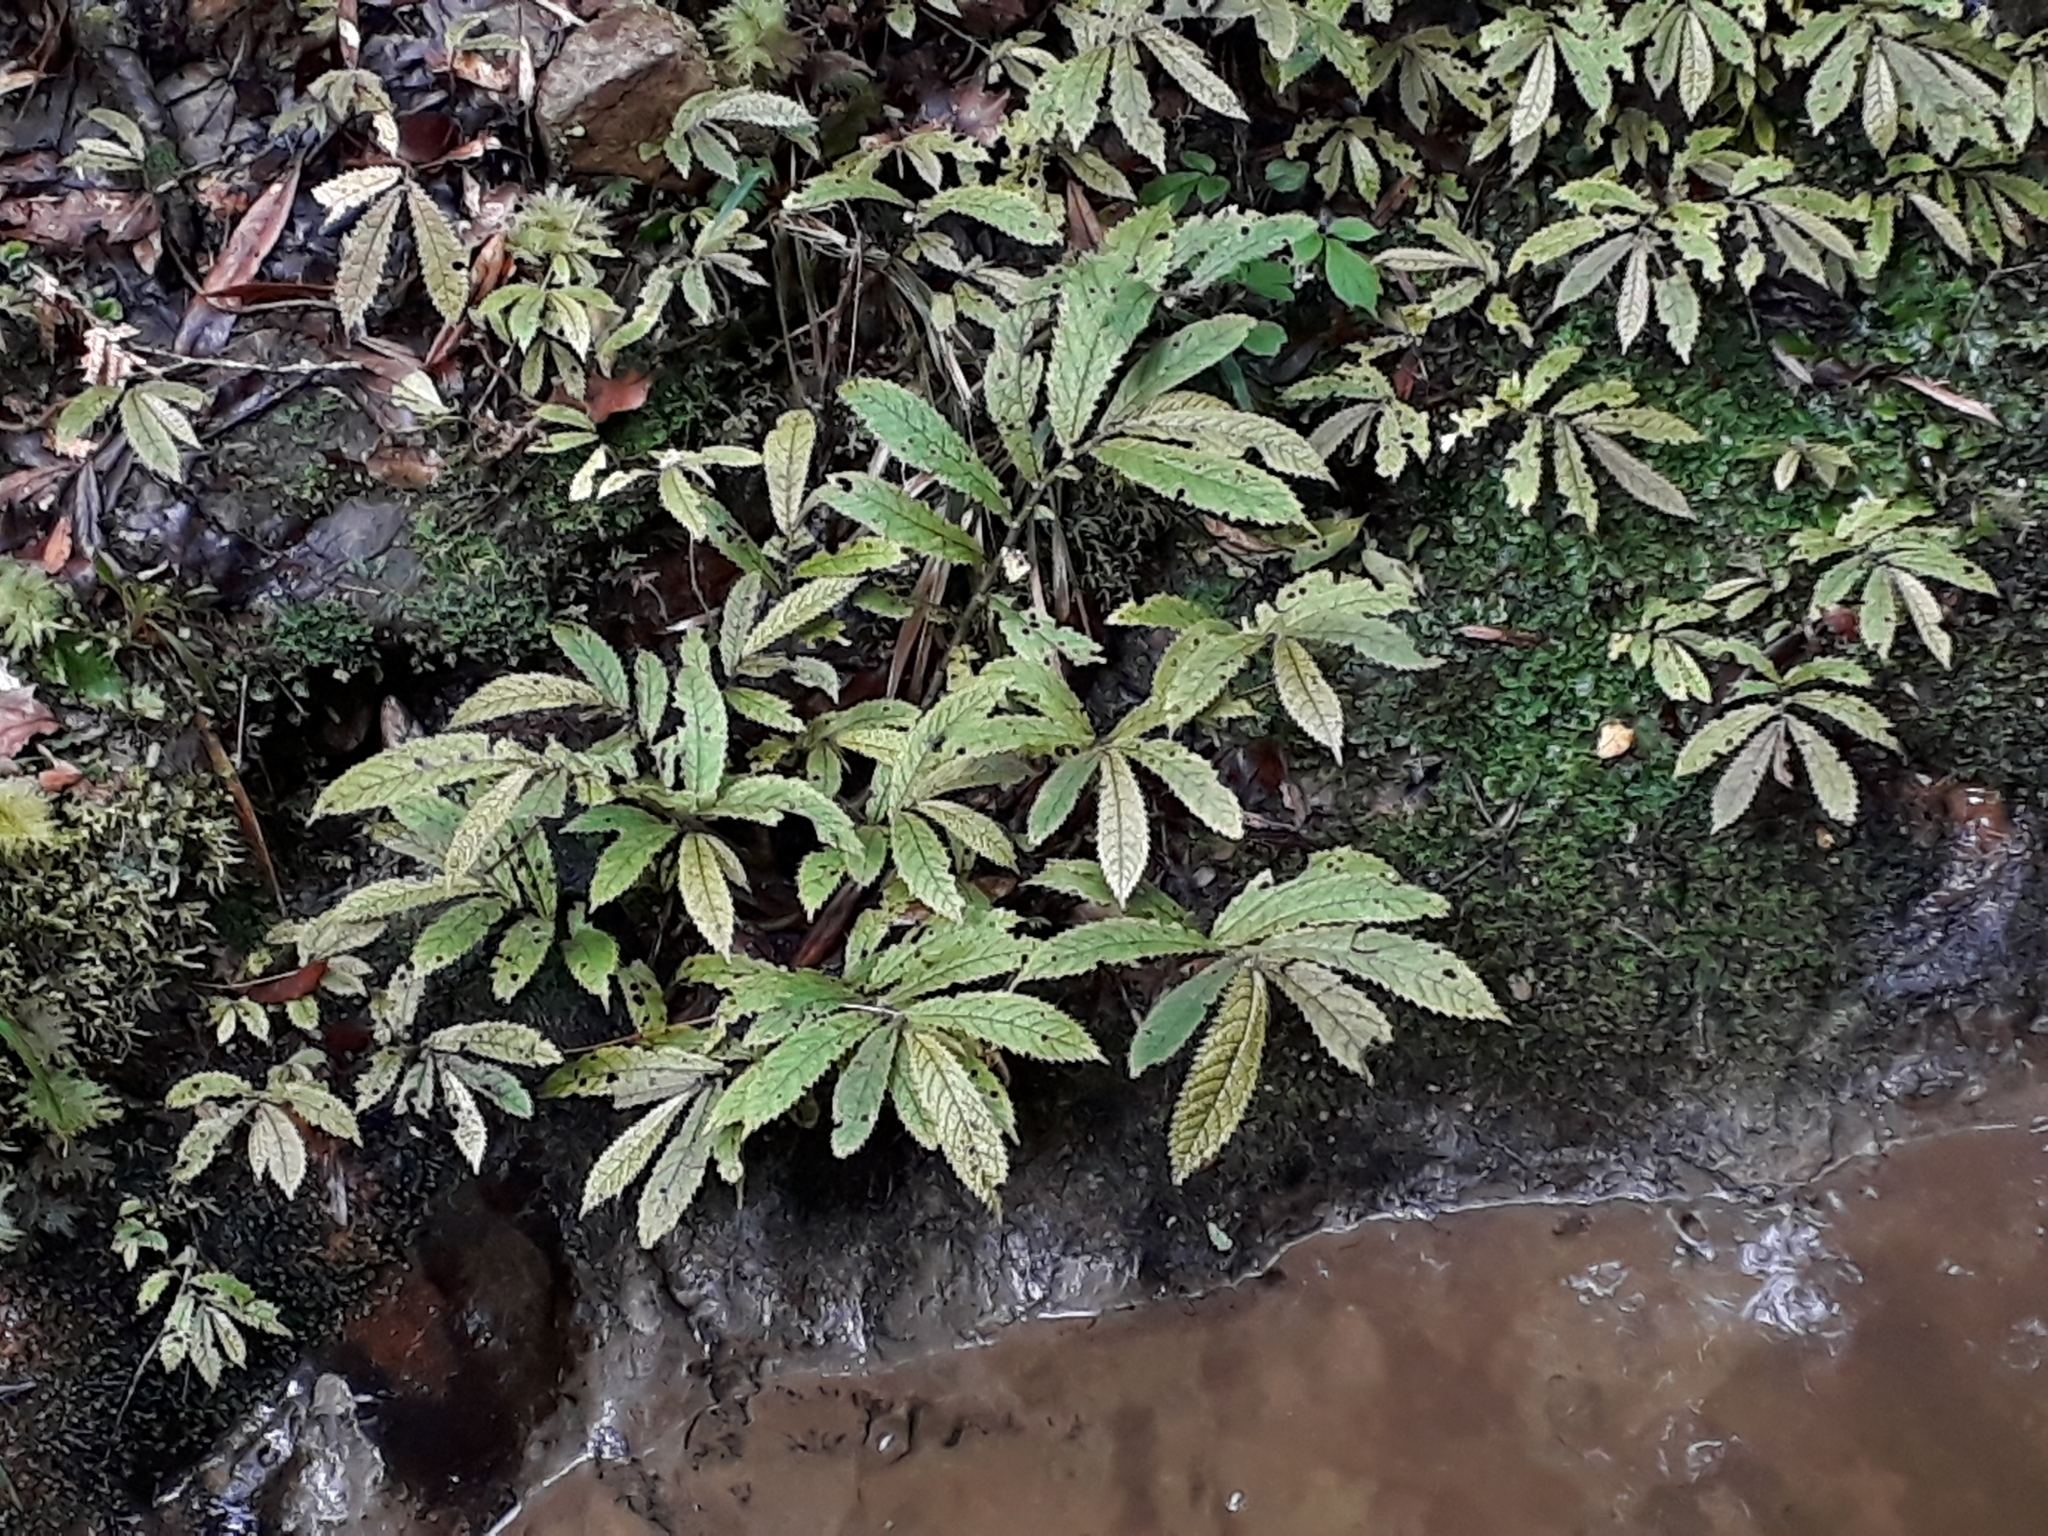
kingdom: Plantae
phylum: Tracheophyta
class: Magnoliopsida
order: Rosales
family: Urticaceae
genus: Elatostema
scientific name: Elatostema rugosum
